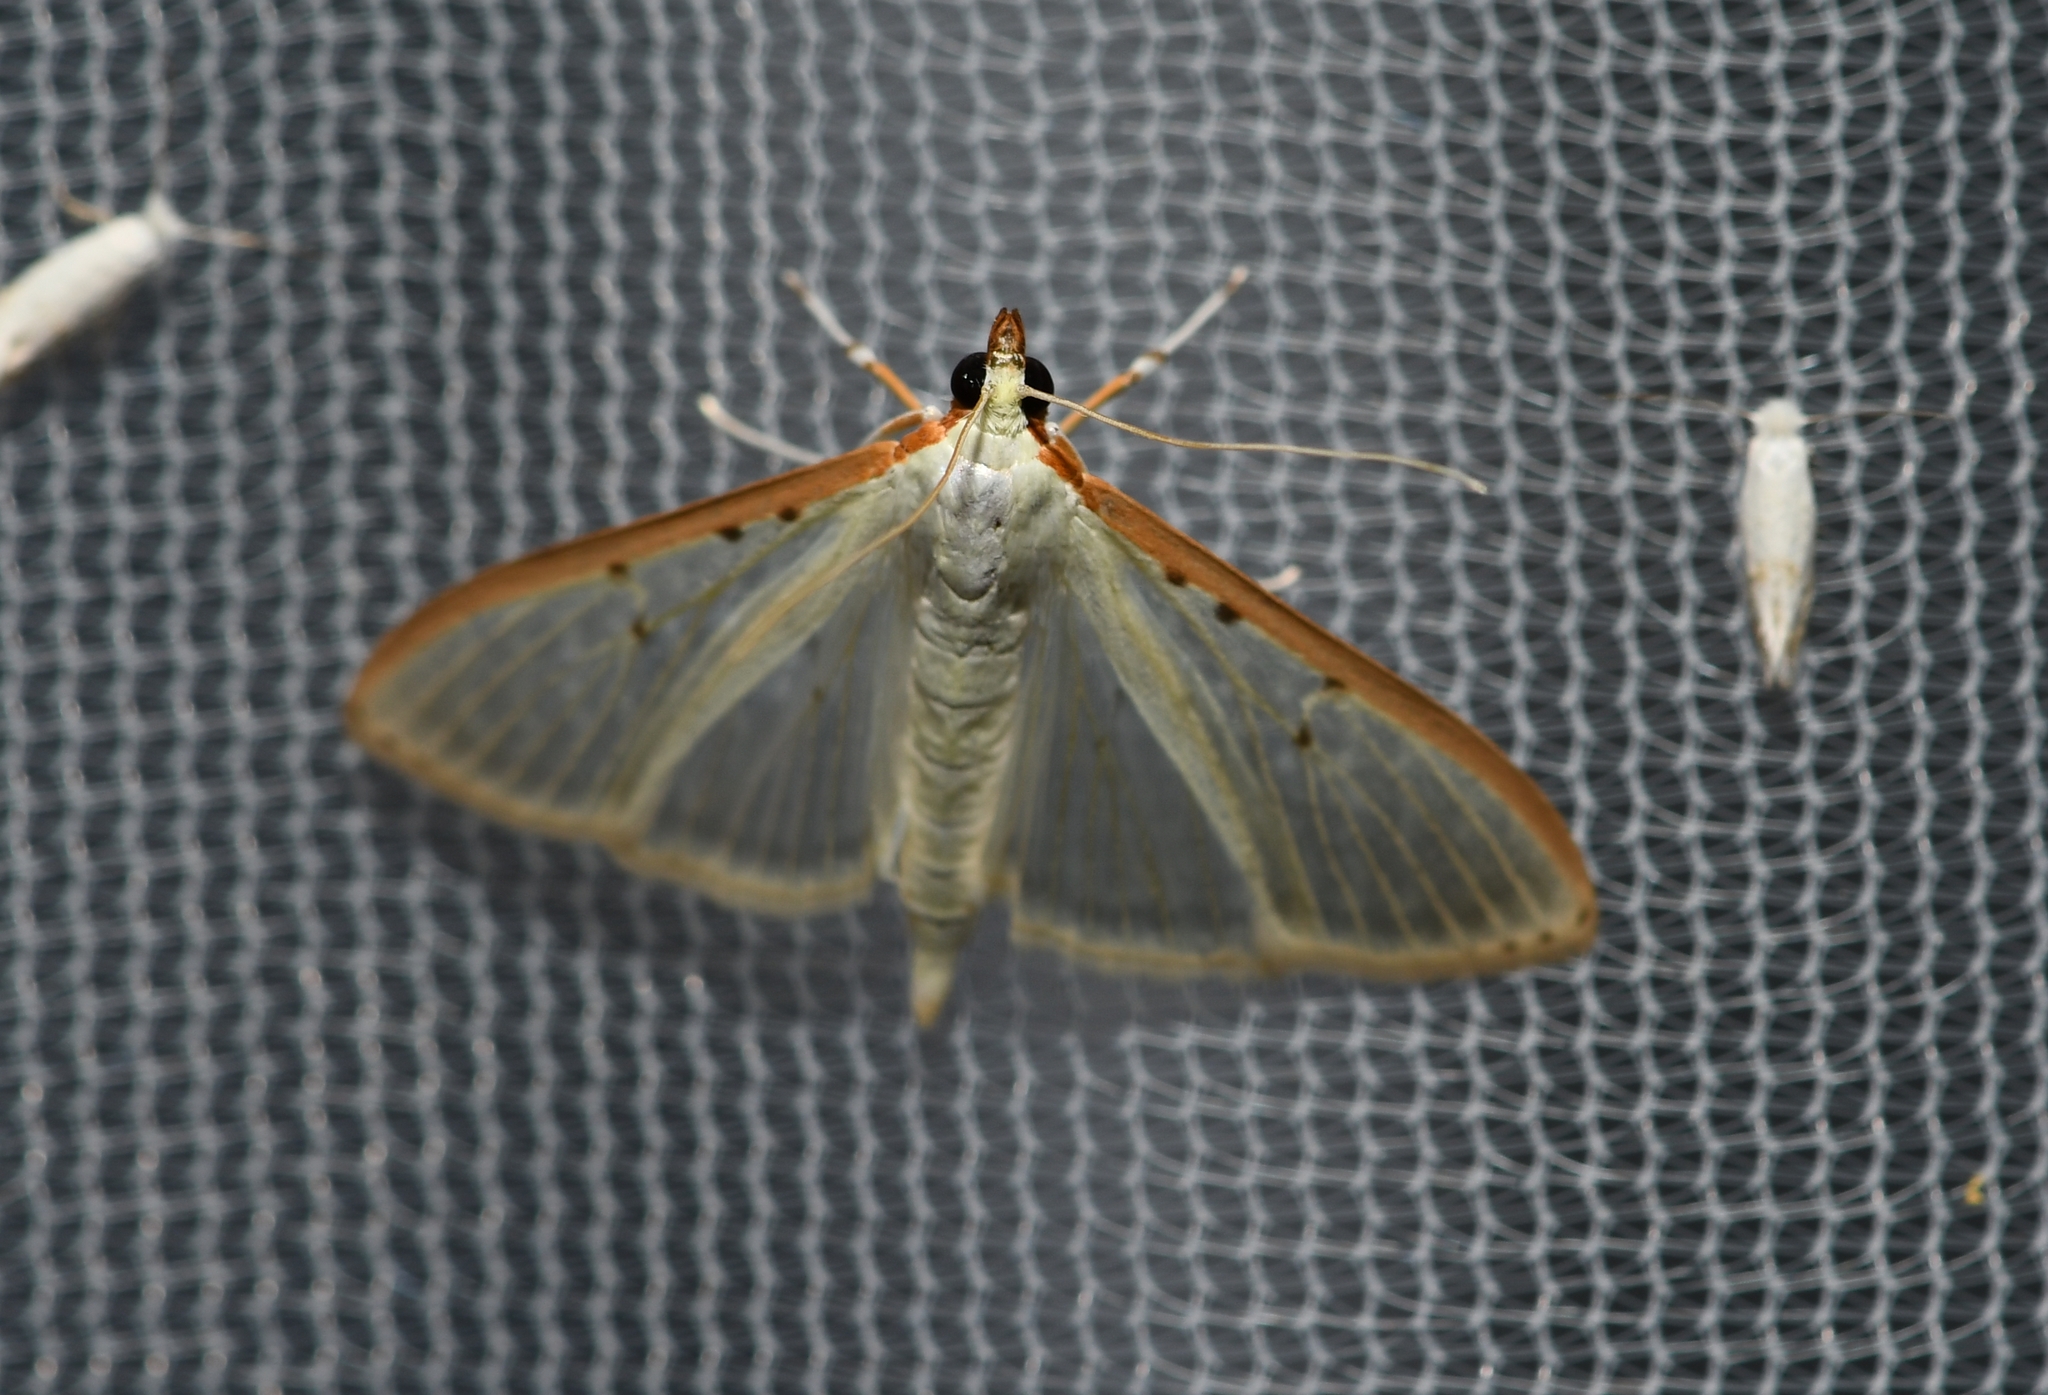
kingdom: Animalia
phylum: Arthropoda
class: Insecta
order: Lepidoptera
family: Crambidae
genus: Palpita
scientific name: Palpita quadristigmalis
